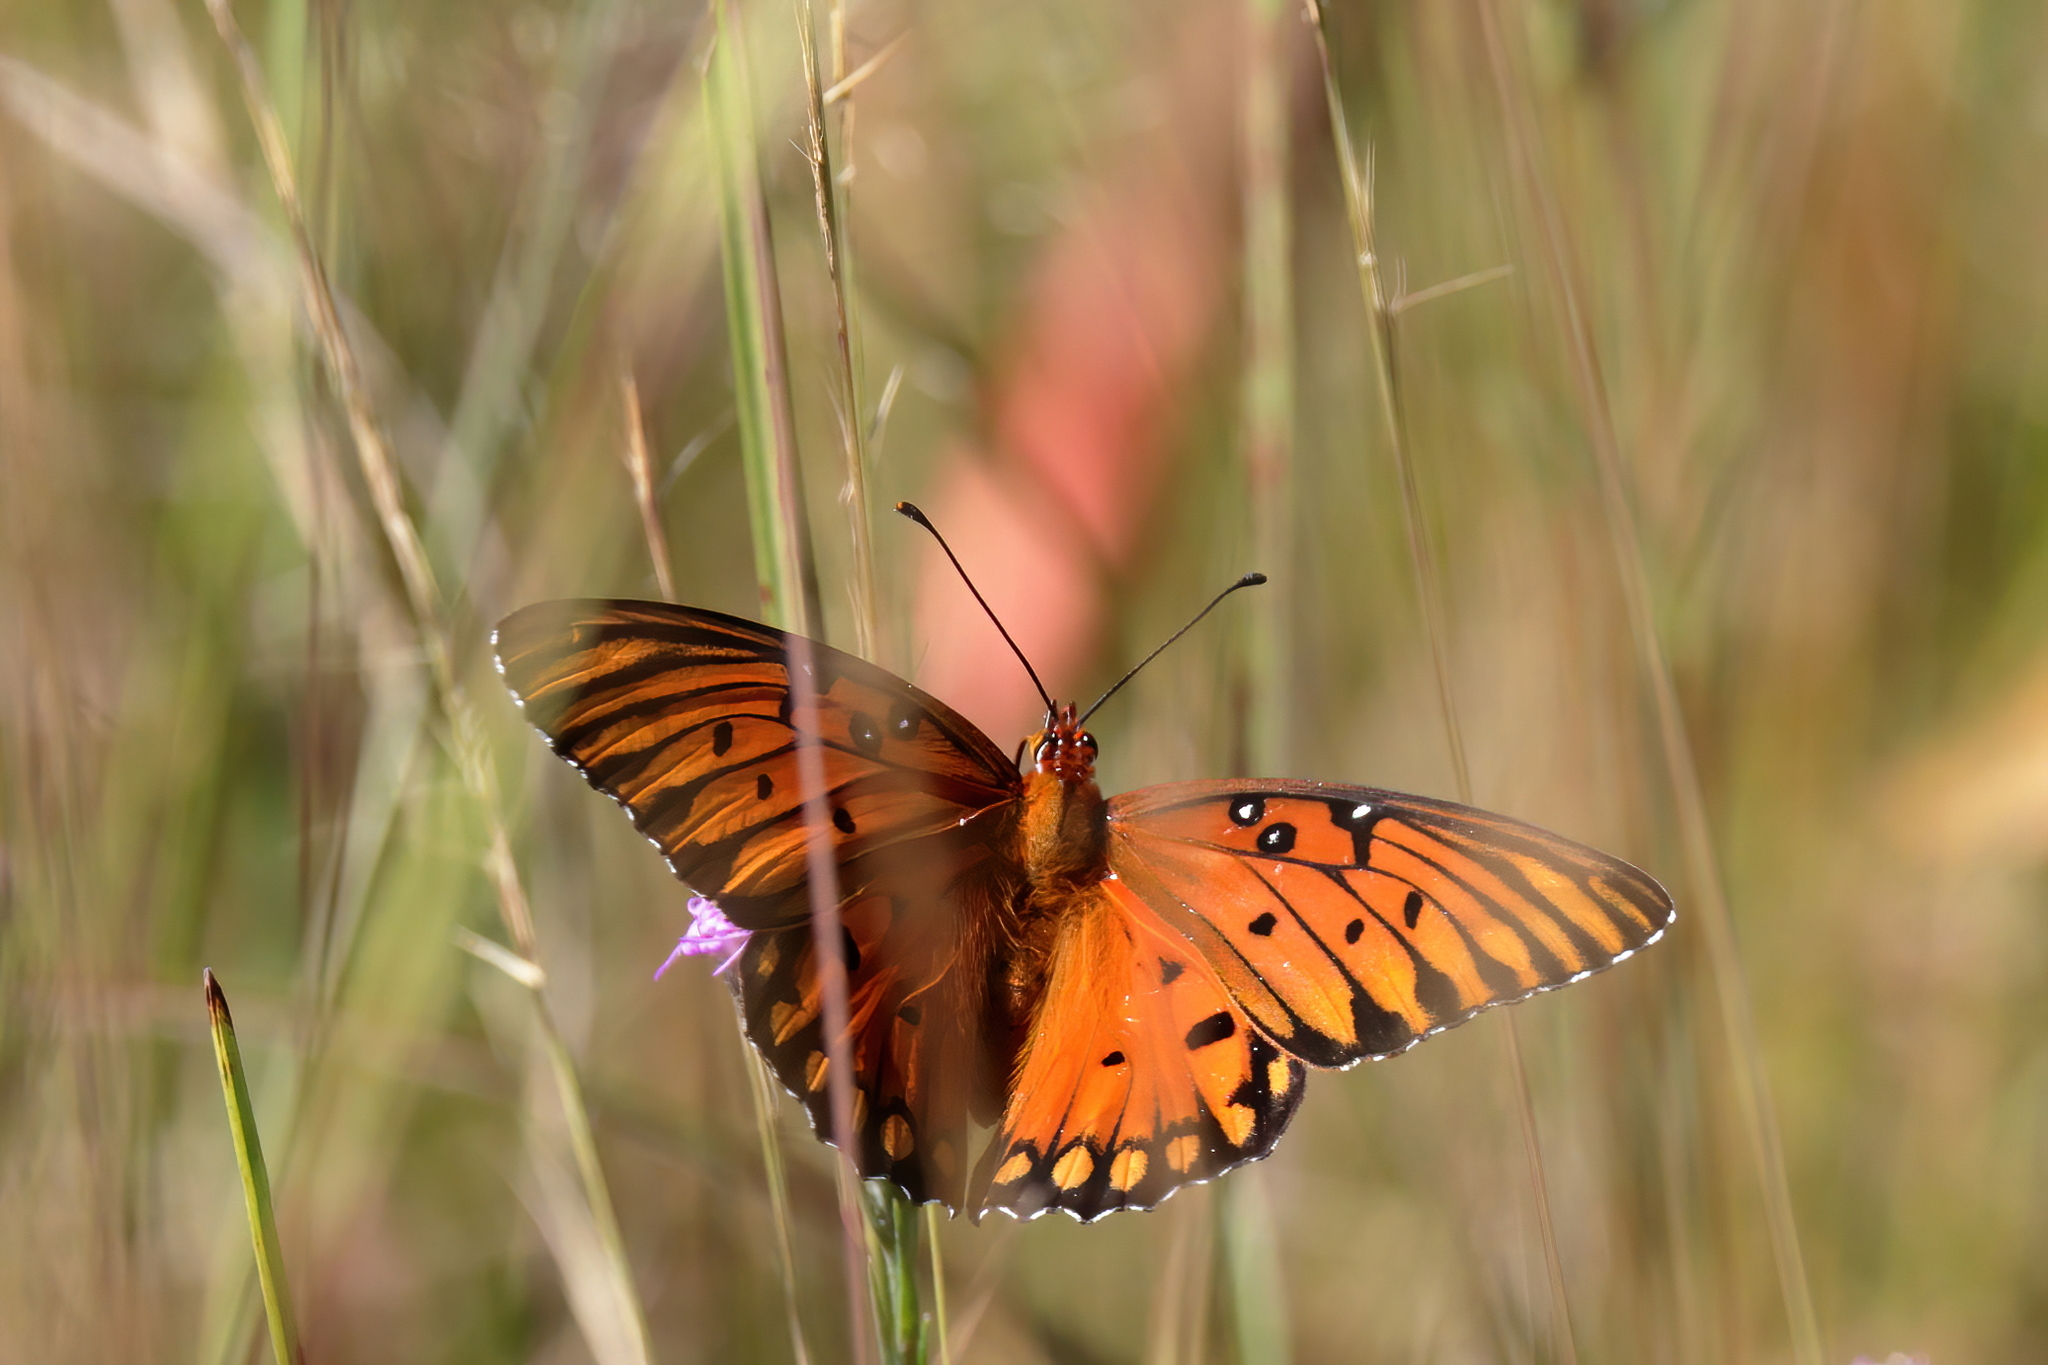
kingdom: Animalia
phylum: Arthropoda
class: Insecta
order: Lepidoptera
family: Nymphalidae
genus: Dione
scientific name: Dione vanillae
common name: Gulf fritillary
